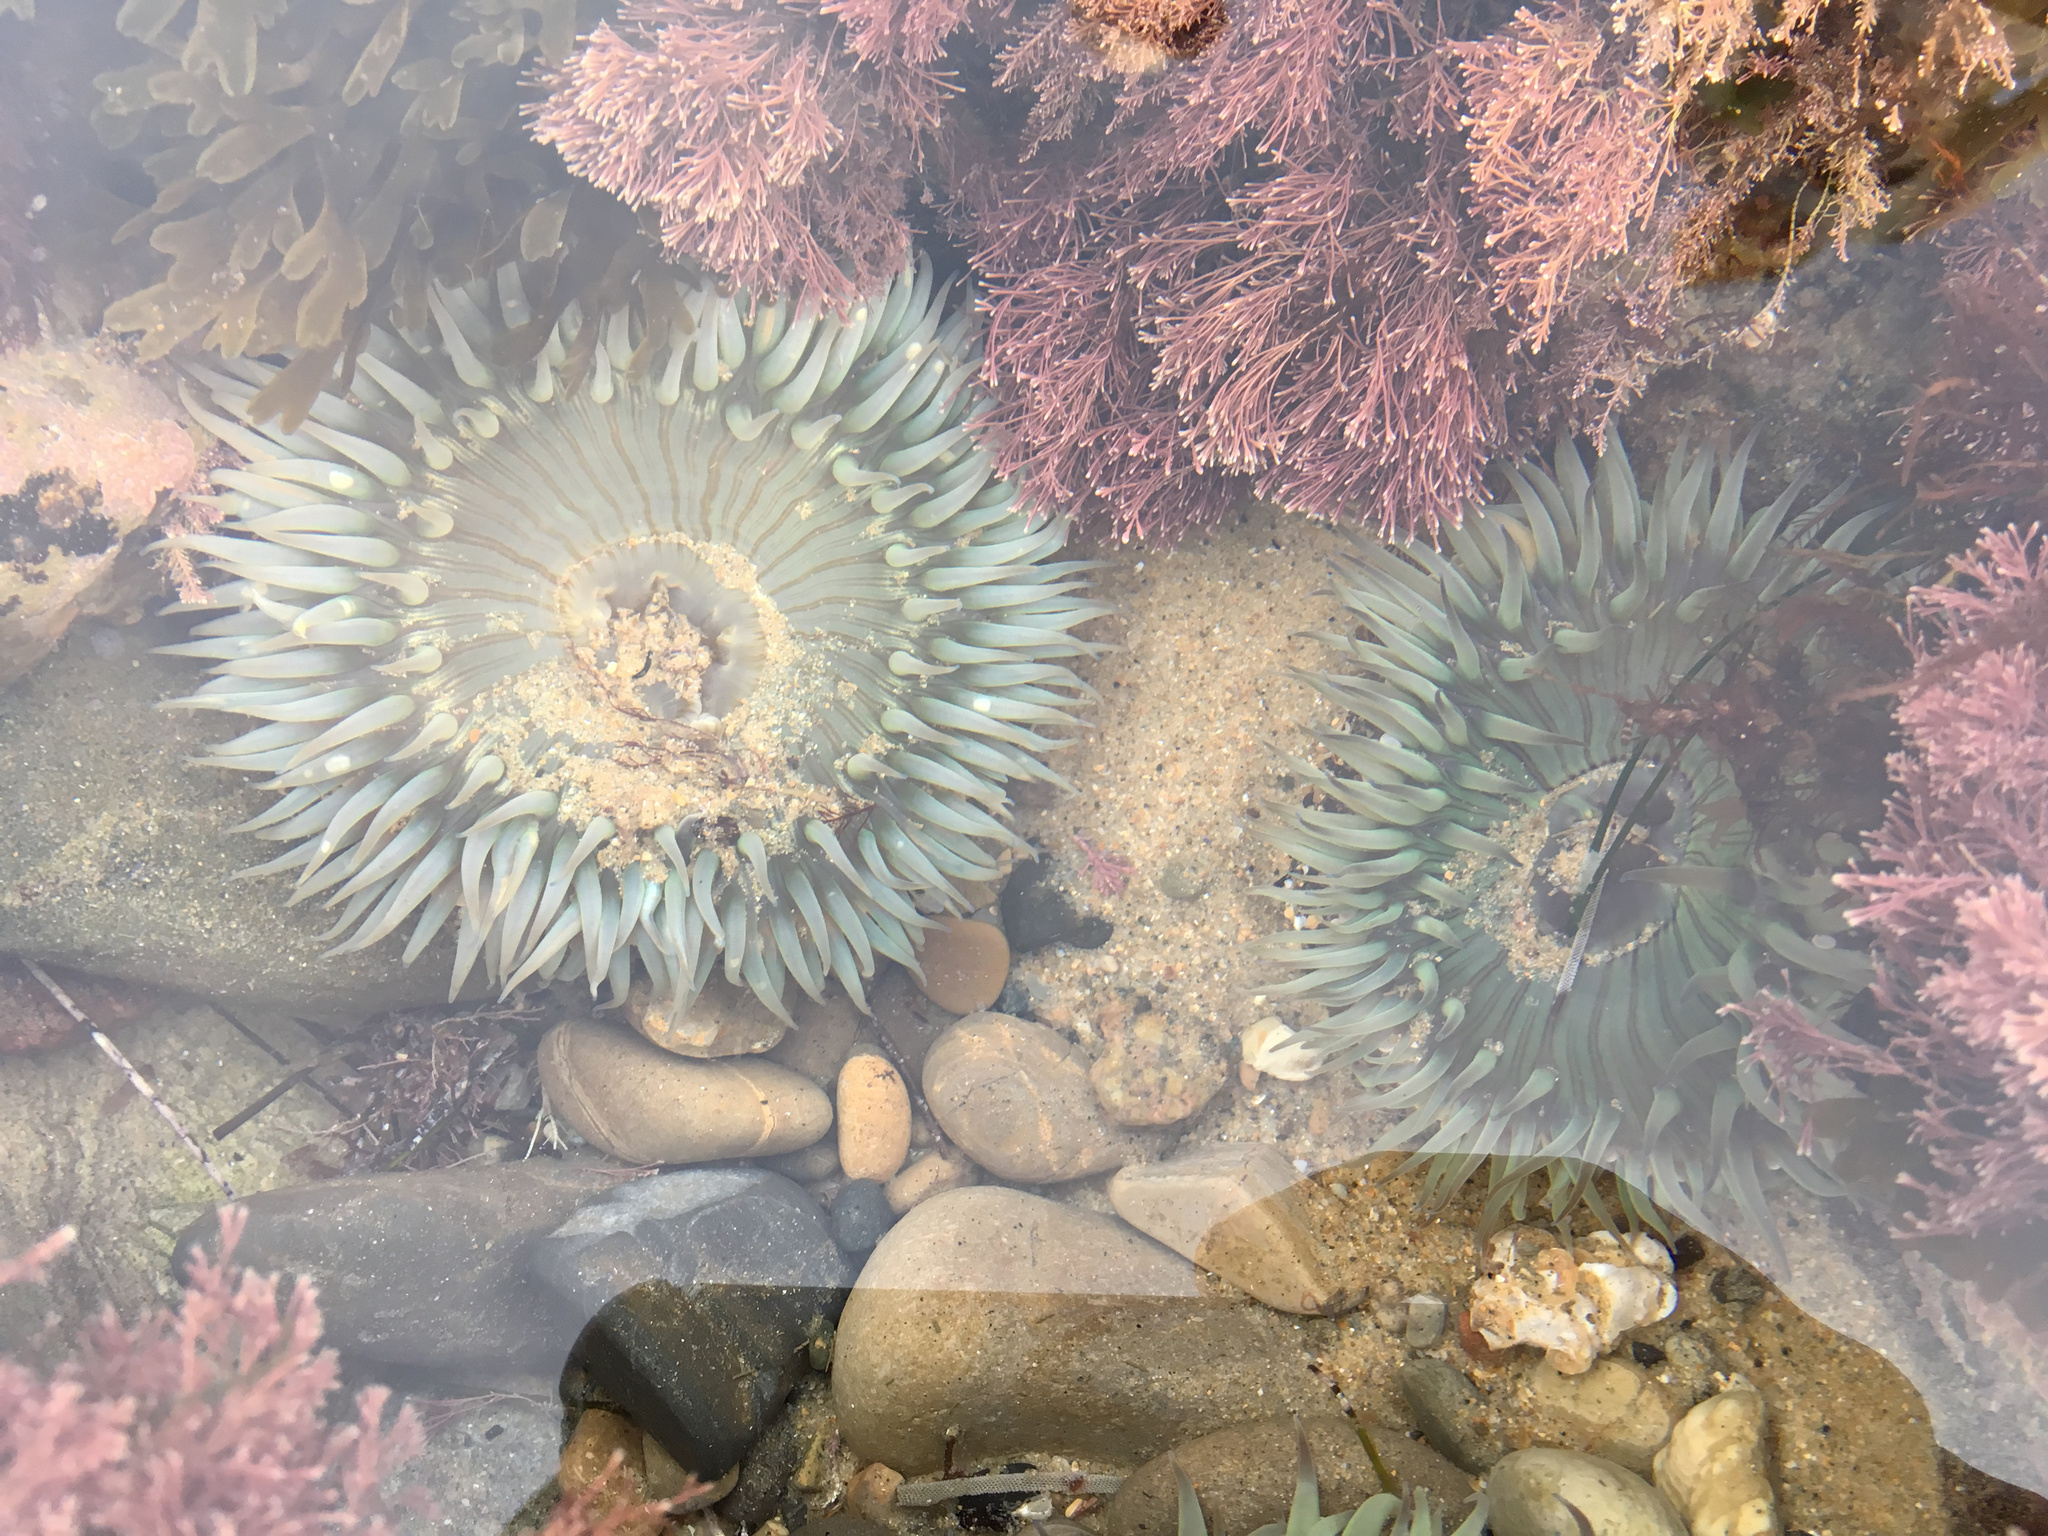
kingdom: Animalia
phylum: Cnidaria
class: Anthozoa
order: Actiniaria
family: Actiniidae
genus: Anthopleura
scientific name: Anthopleura sola
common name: Sun anemone
